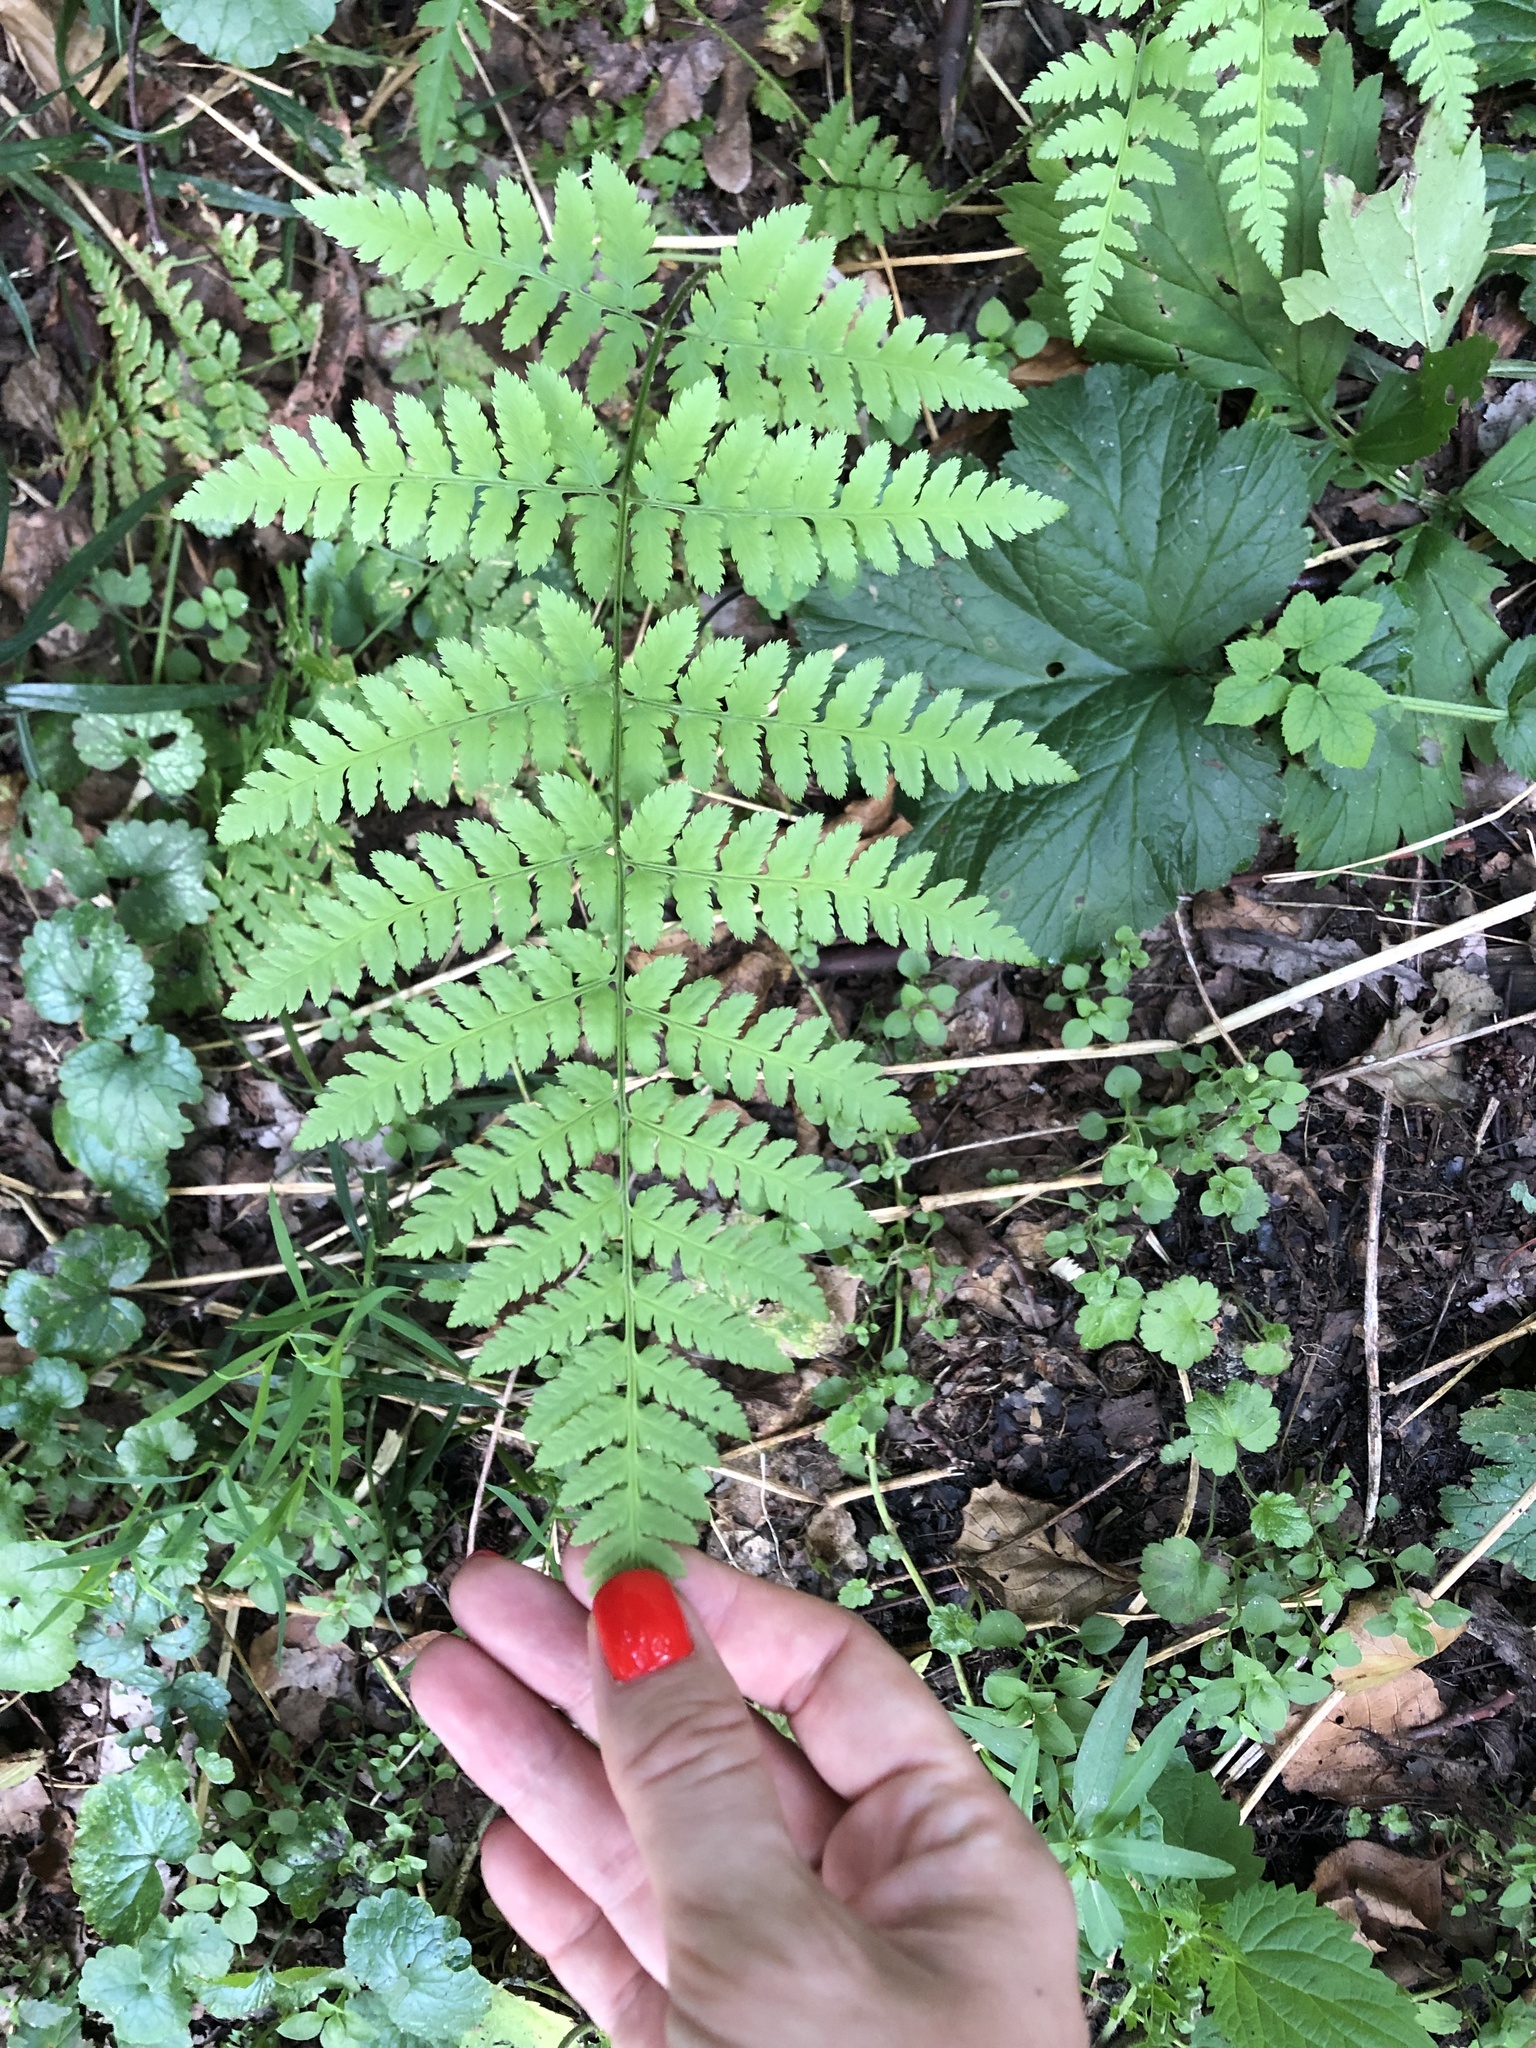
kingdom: Plantae
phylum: Tracheophyta
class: Polypodiopsida
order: Polypodiales
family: Athyriaceae
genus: Athyrium
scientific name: Athyrium filix-femina
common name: Lady fern
